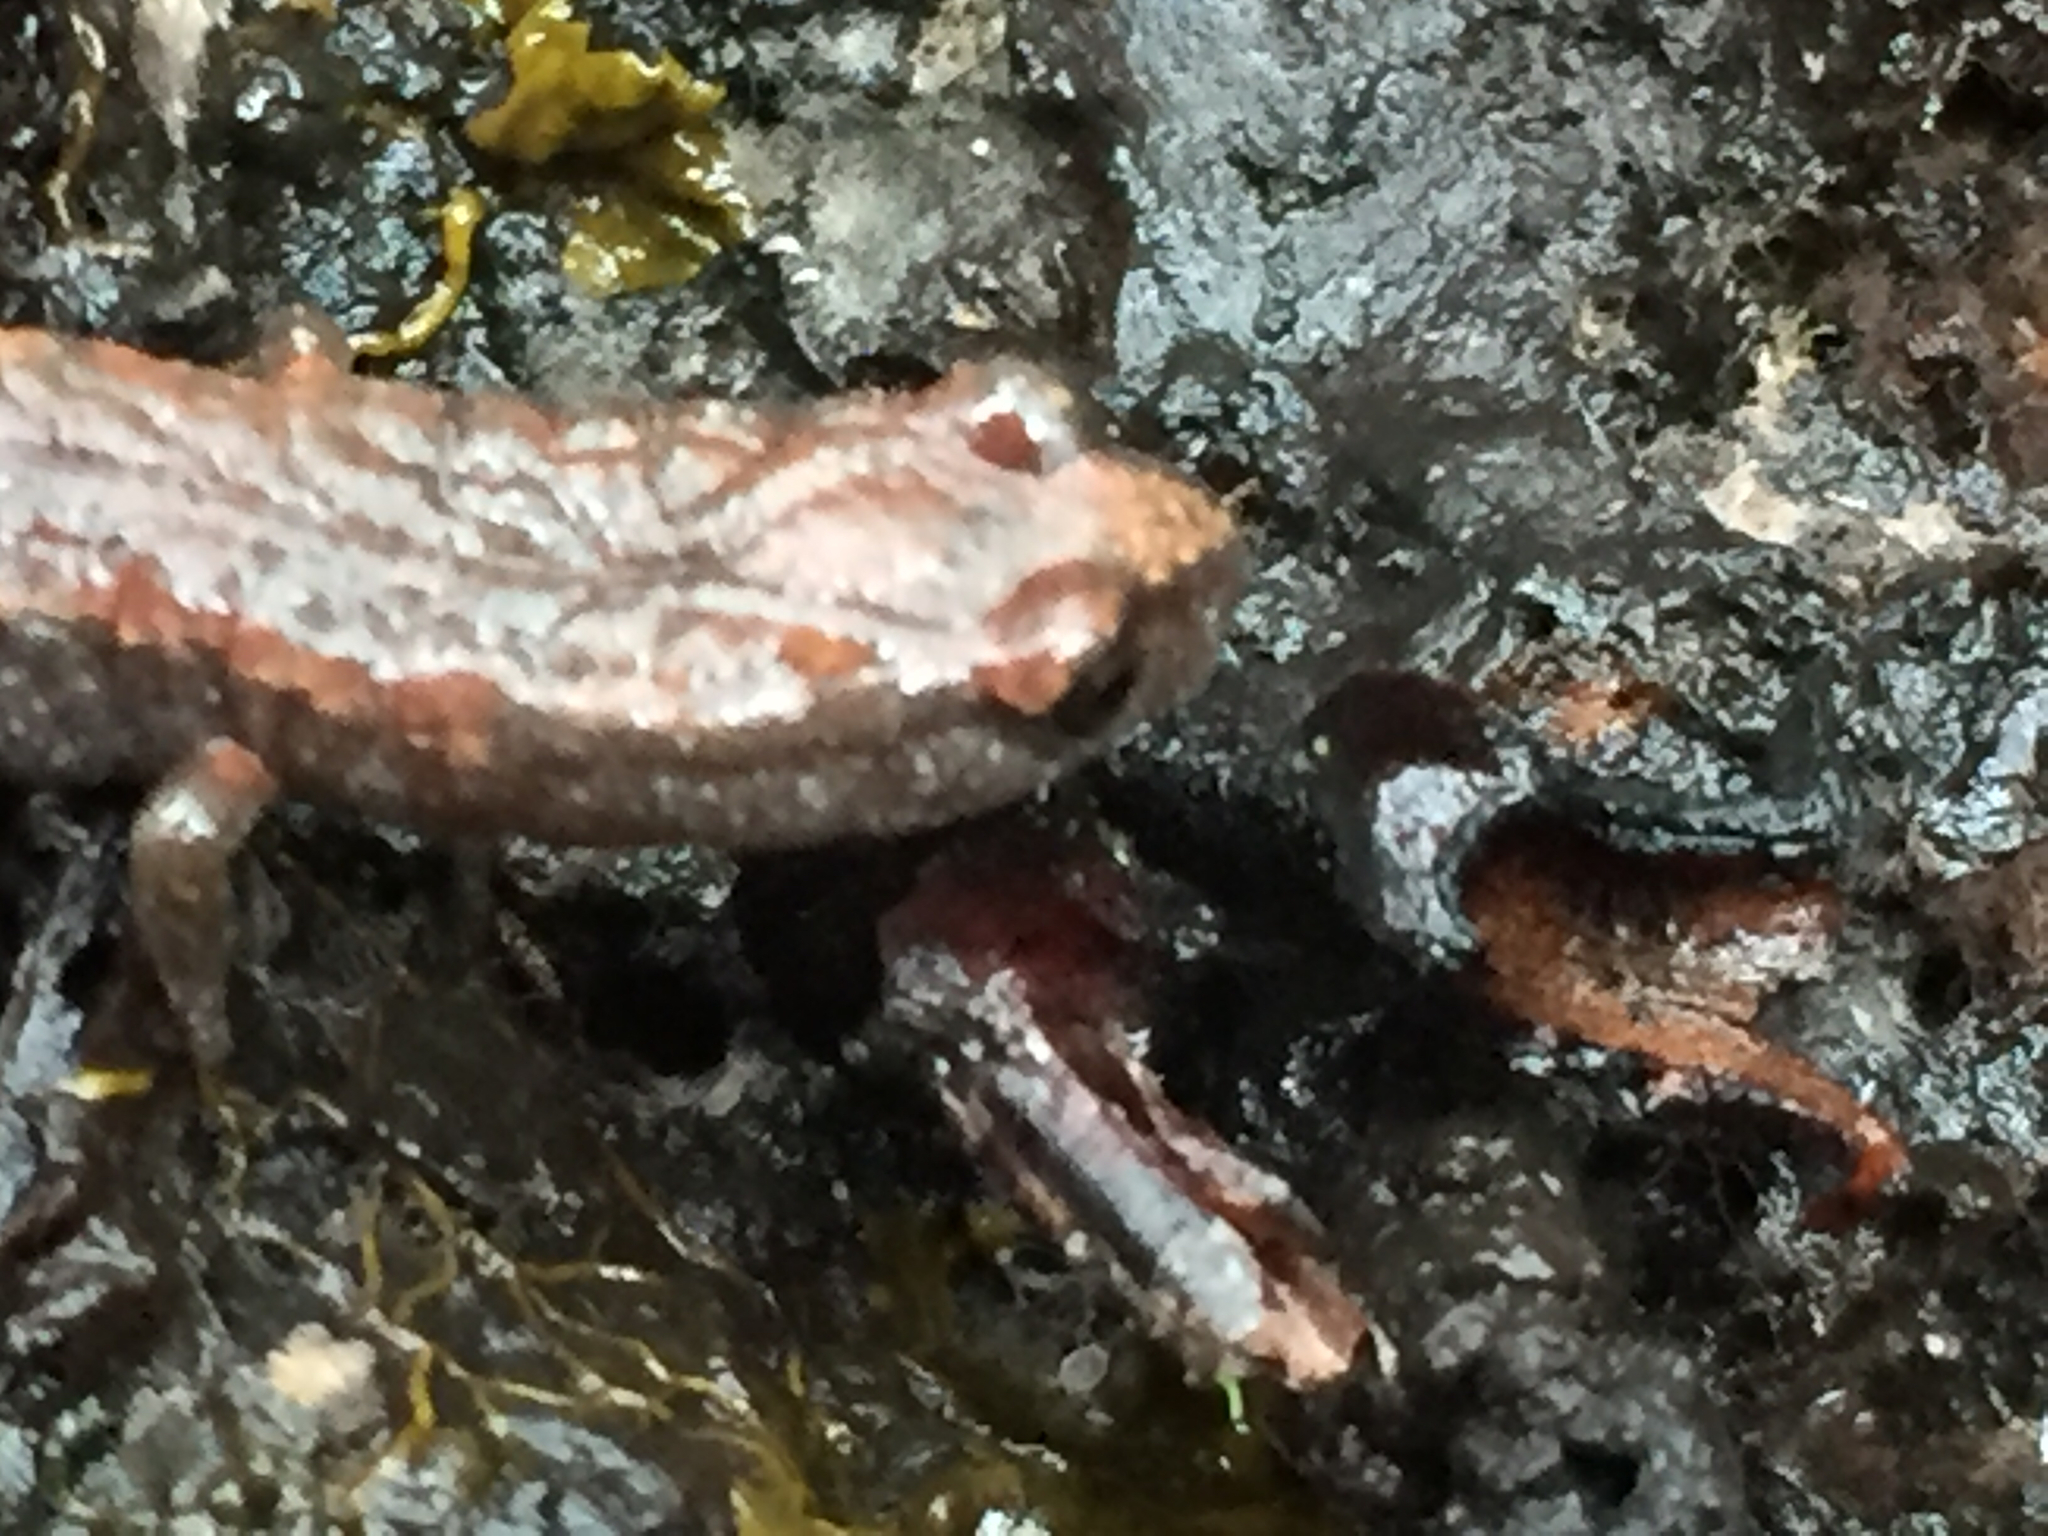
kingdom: Animalia
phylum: Chordata
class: Amphibia
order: Caudata
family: Plethodontidae
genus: Batrachoseps
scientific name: Batrachoseps attenuatus
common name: California slender salamander
